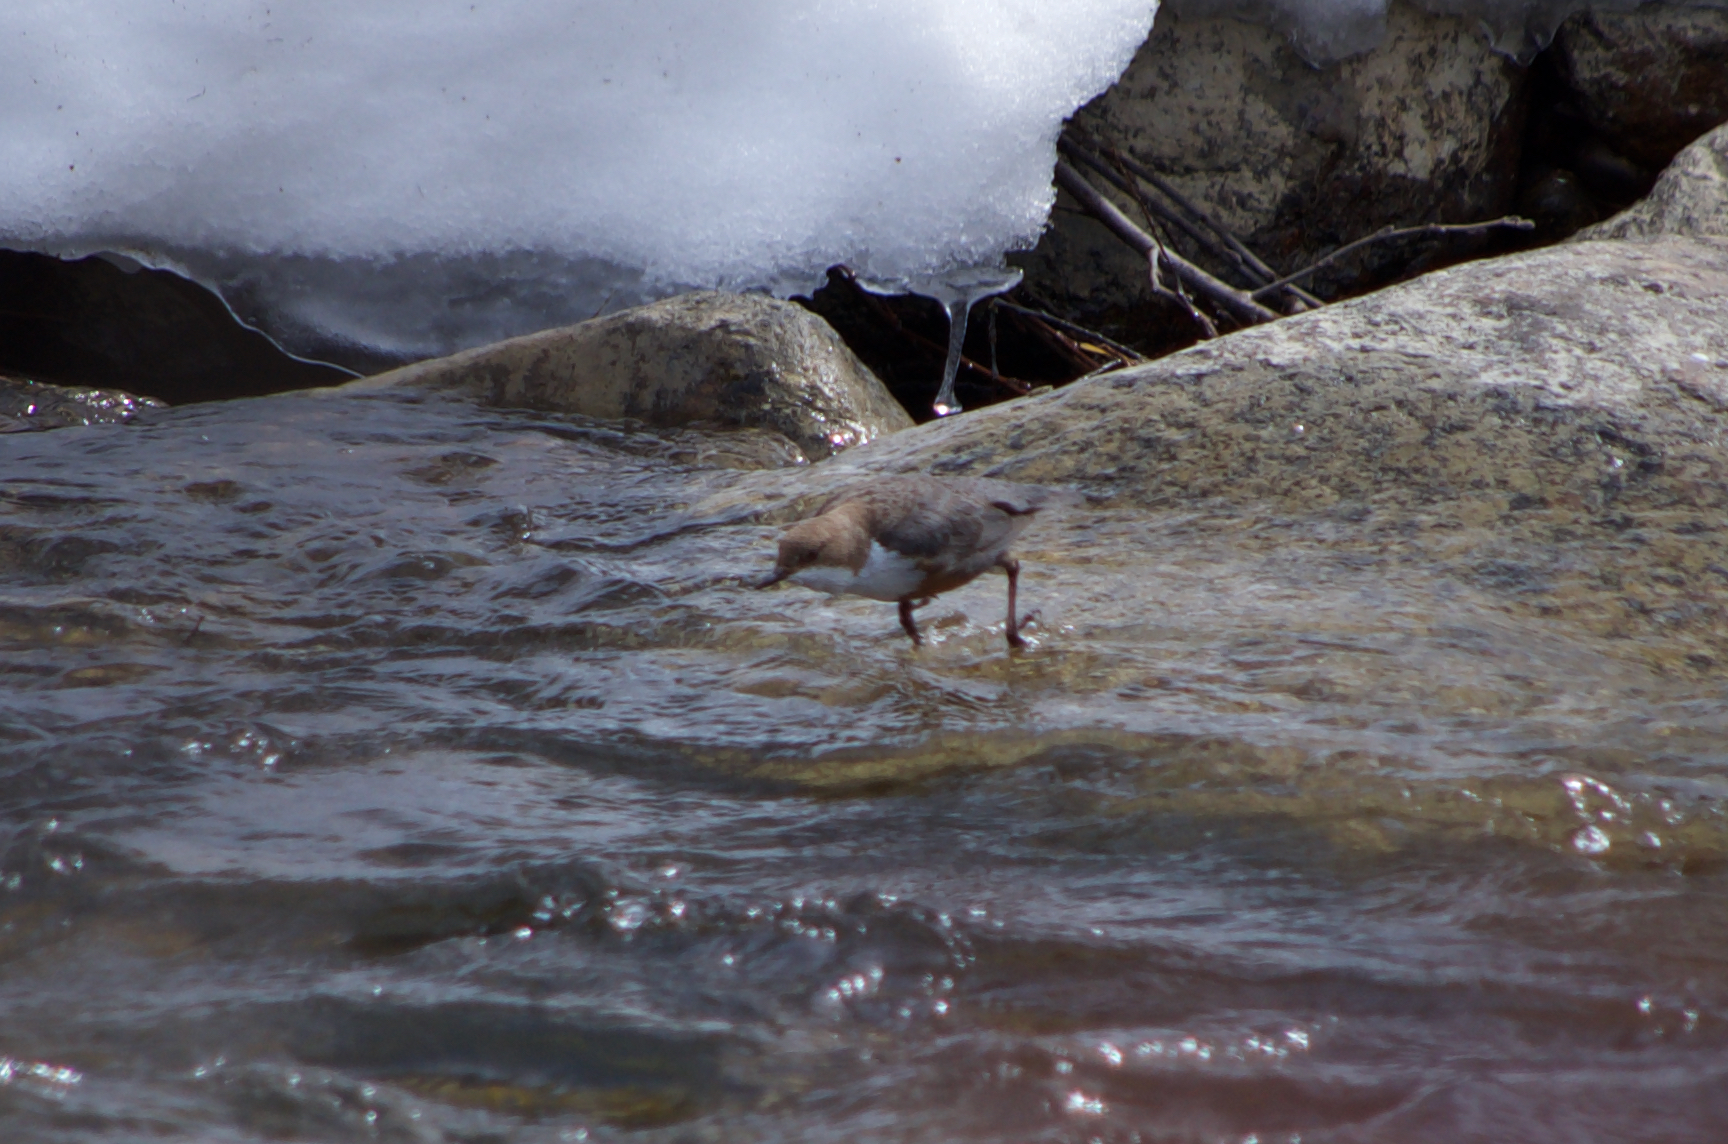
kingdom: Animalia
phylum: Chordata
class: Aves
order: Passeriformes
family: Cinclidae
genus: Cinclus
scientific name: Cinclus cinclus
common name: White-throated dipper
